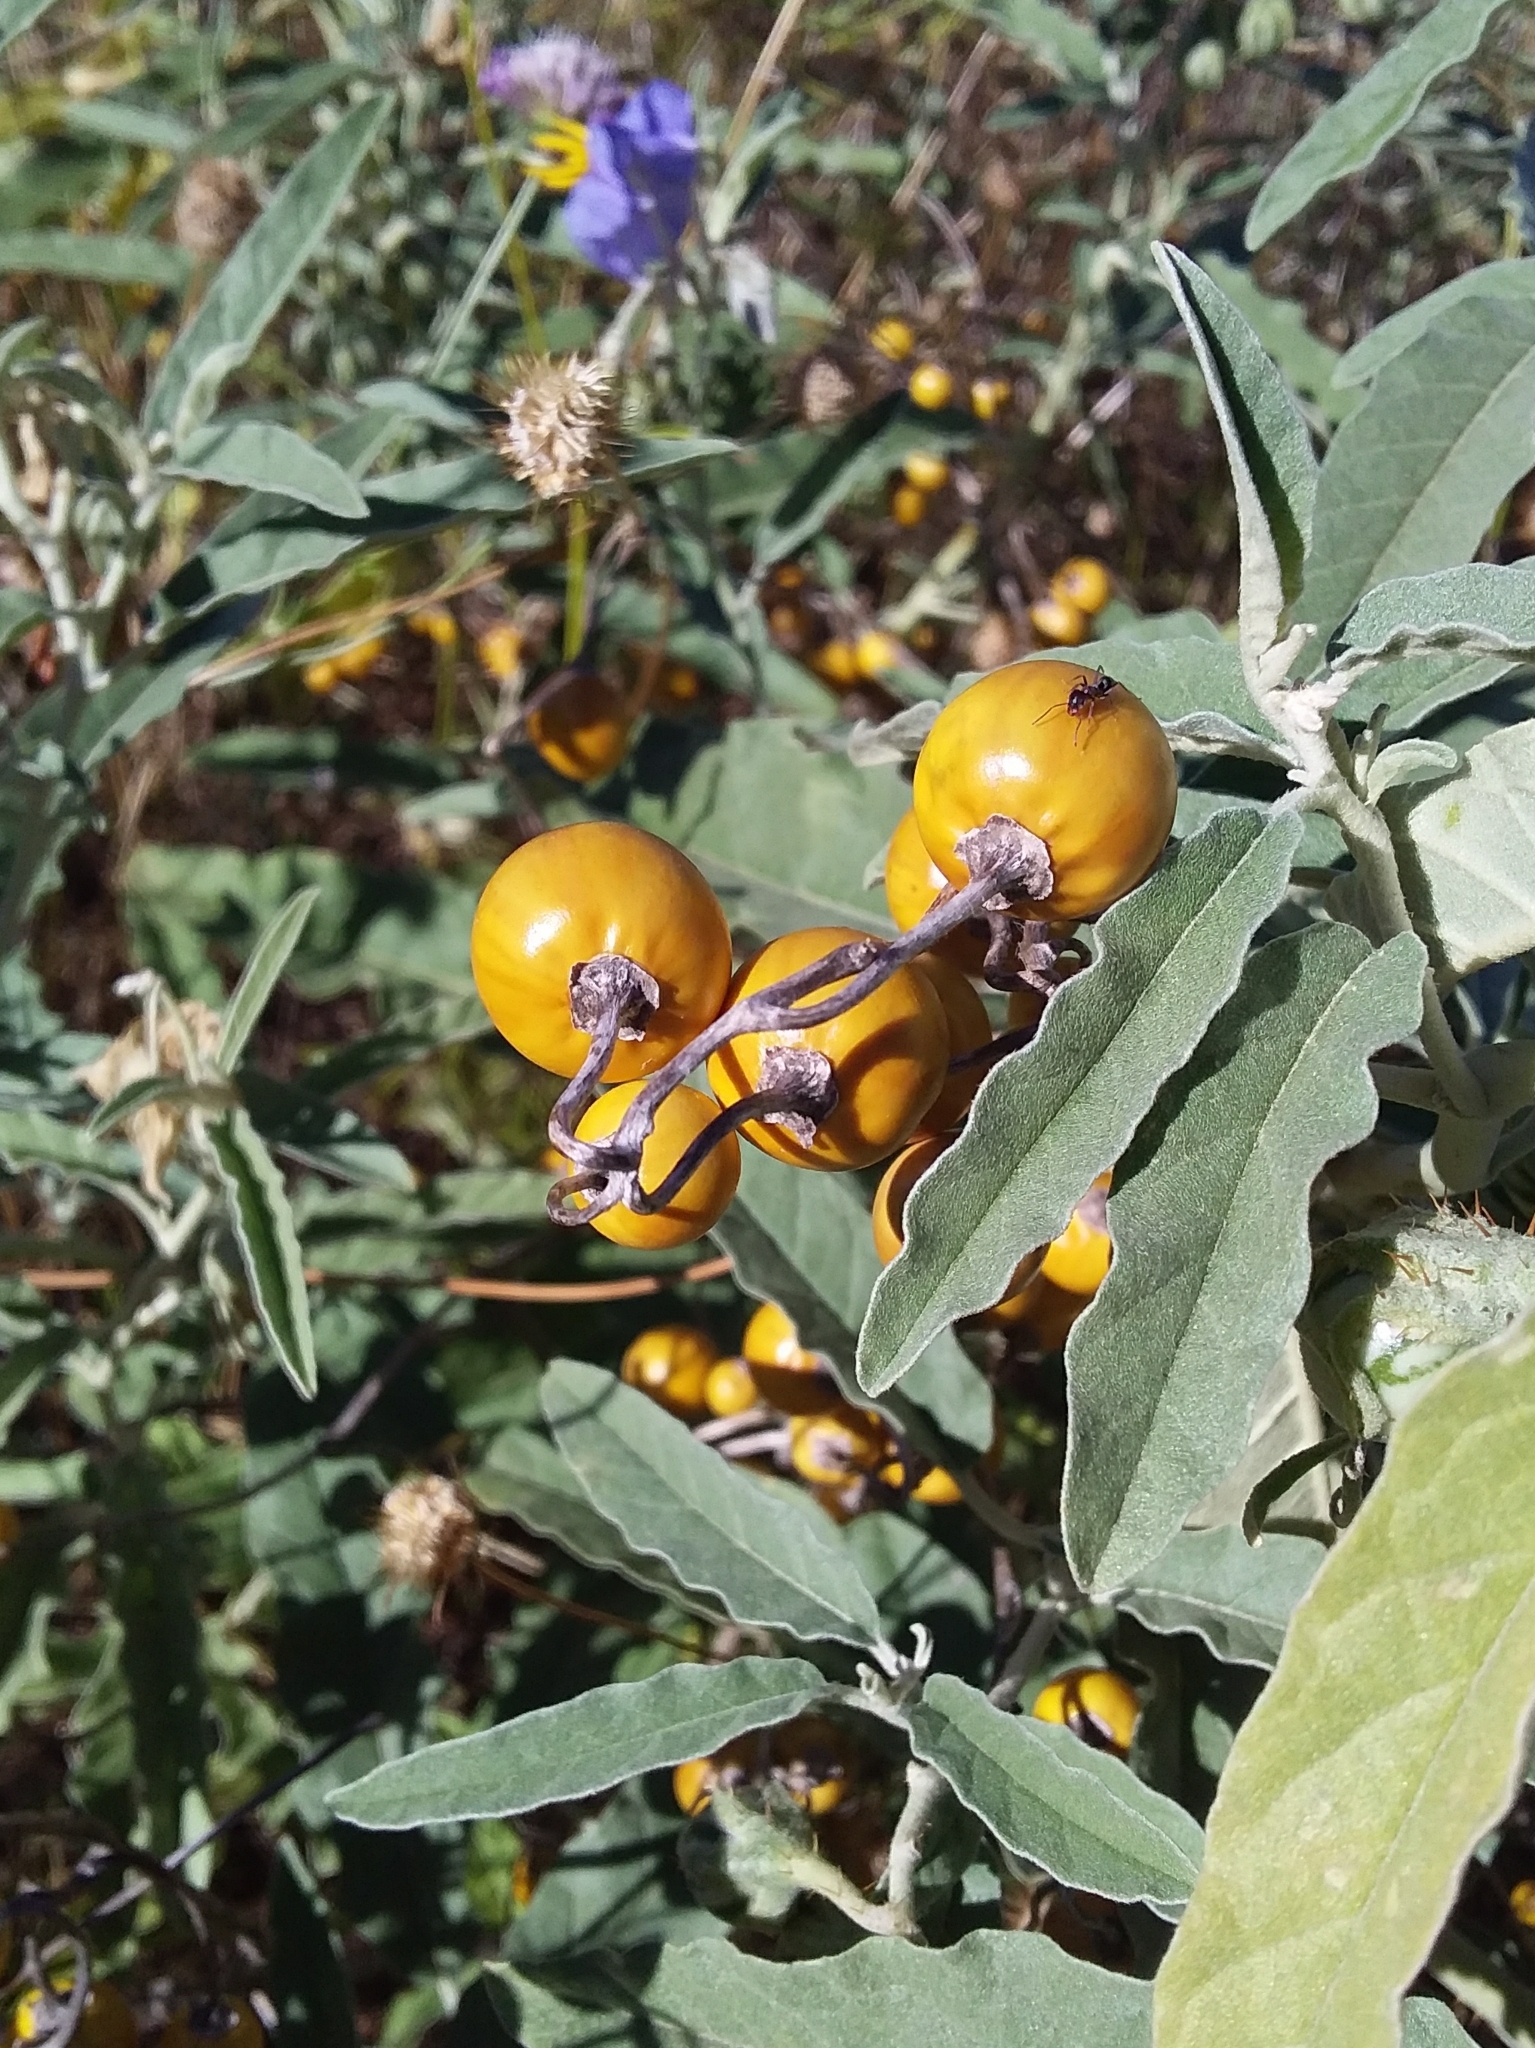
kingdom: Plantae
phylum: Tracheophyta
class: Magnoliopsida
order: Solanales
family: Solanaceae
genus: Solanum
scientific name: Solanum elaeagnifolium
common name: Silverleaf nightshade
